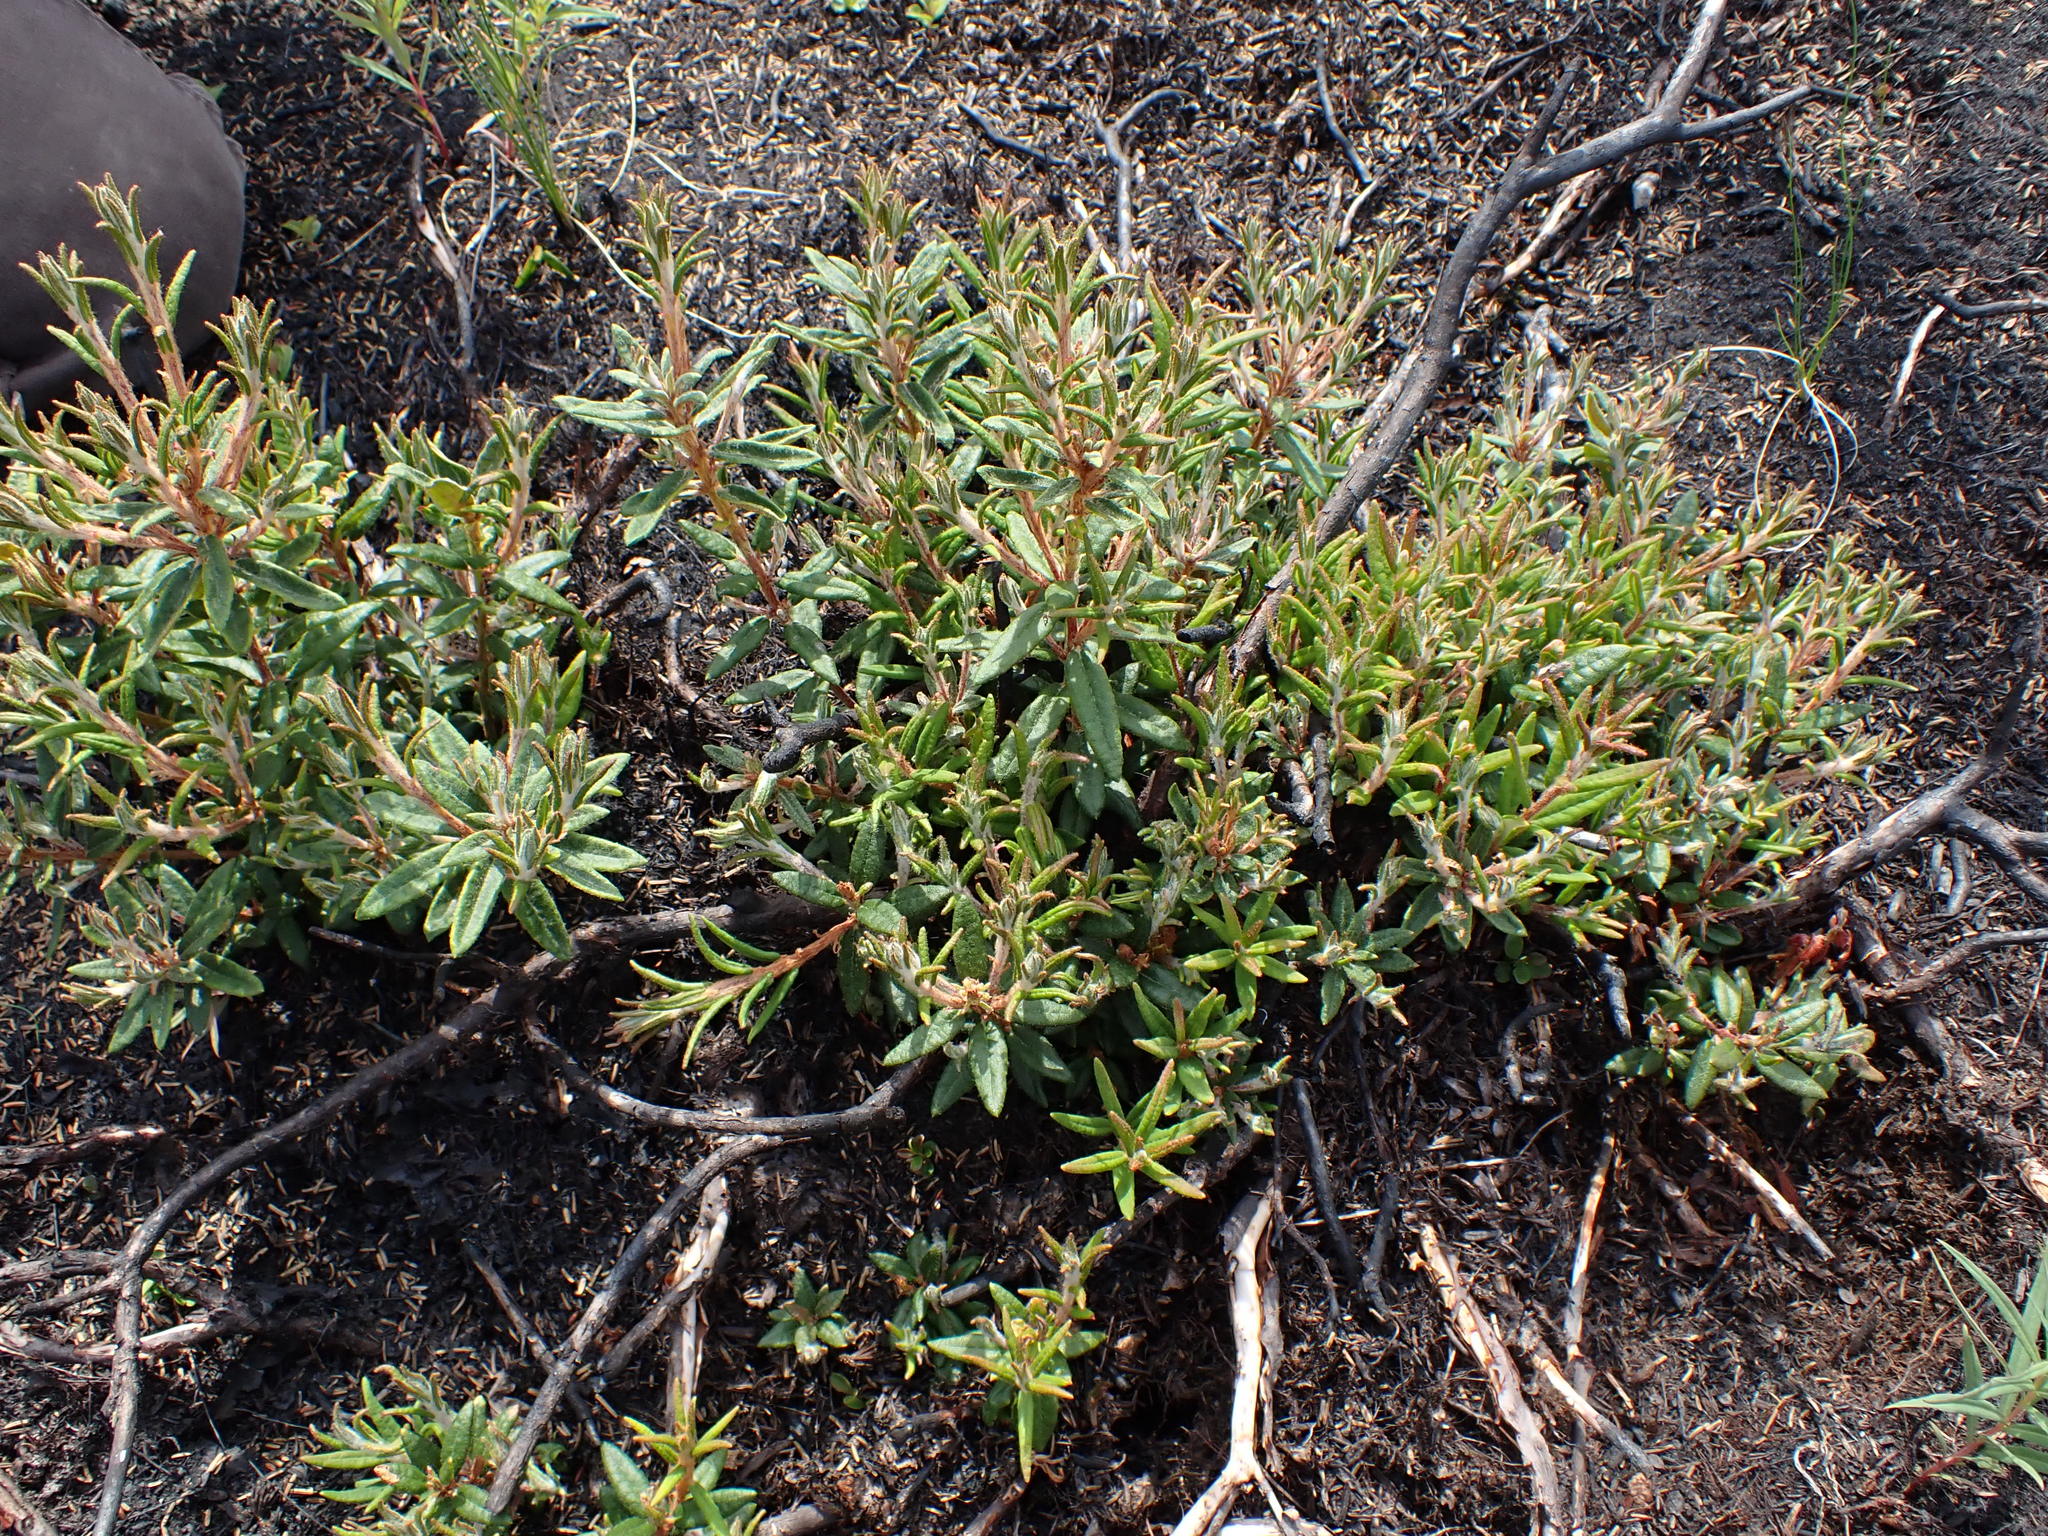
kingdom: Plantae
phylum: Tracheophyta
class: Magnoliopsida
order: Ericales
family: Ericaceae
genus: Rhododendron
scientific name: Rhododendron groenlandicum
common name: Bog labrador tea
